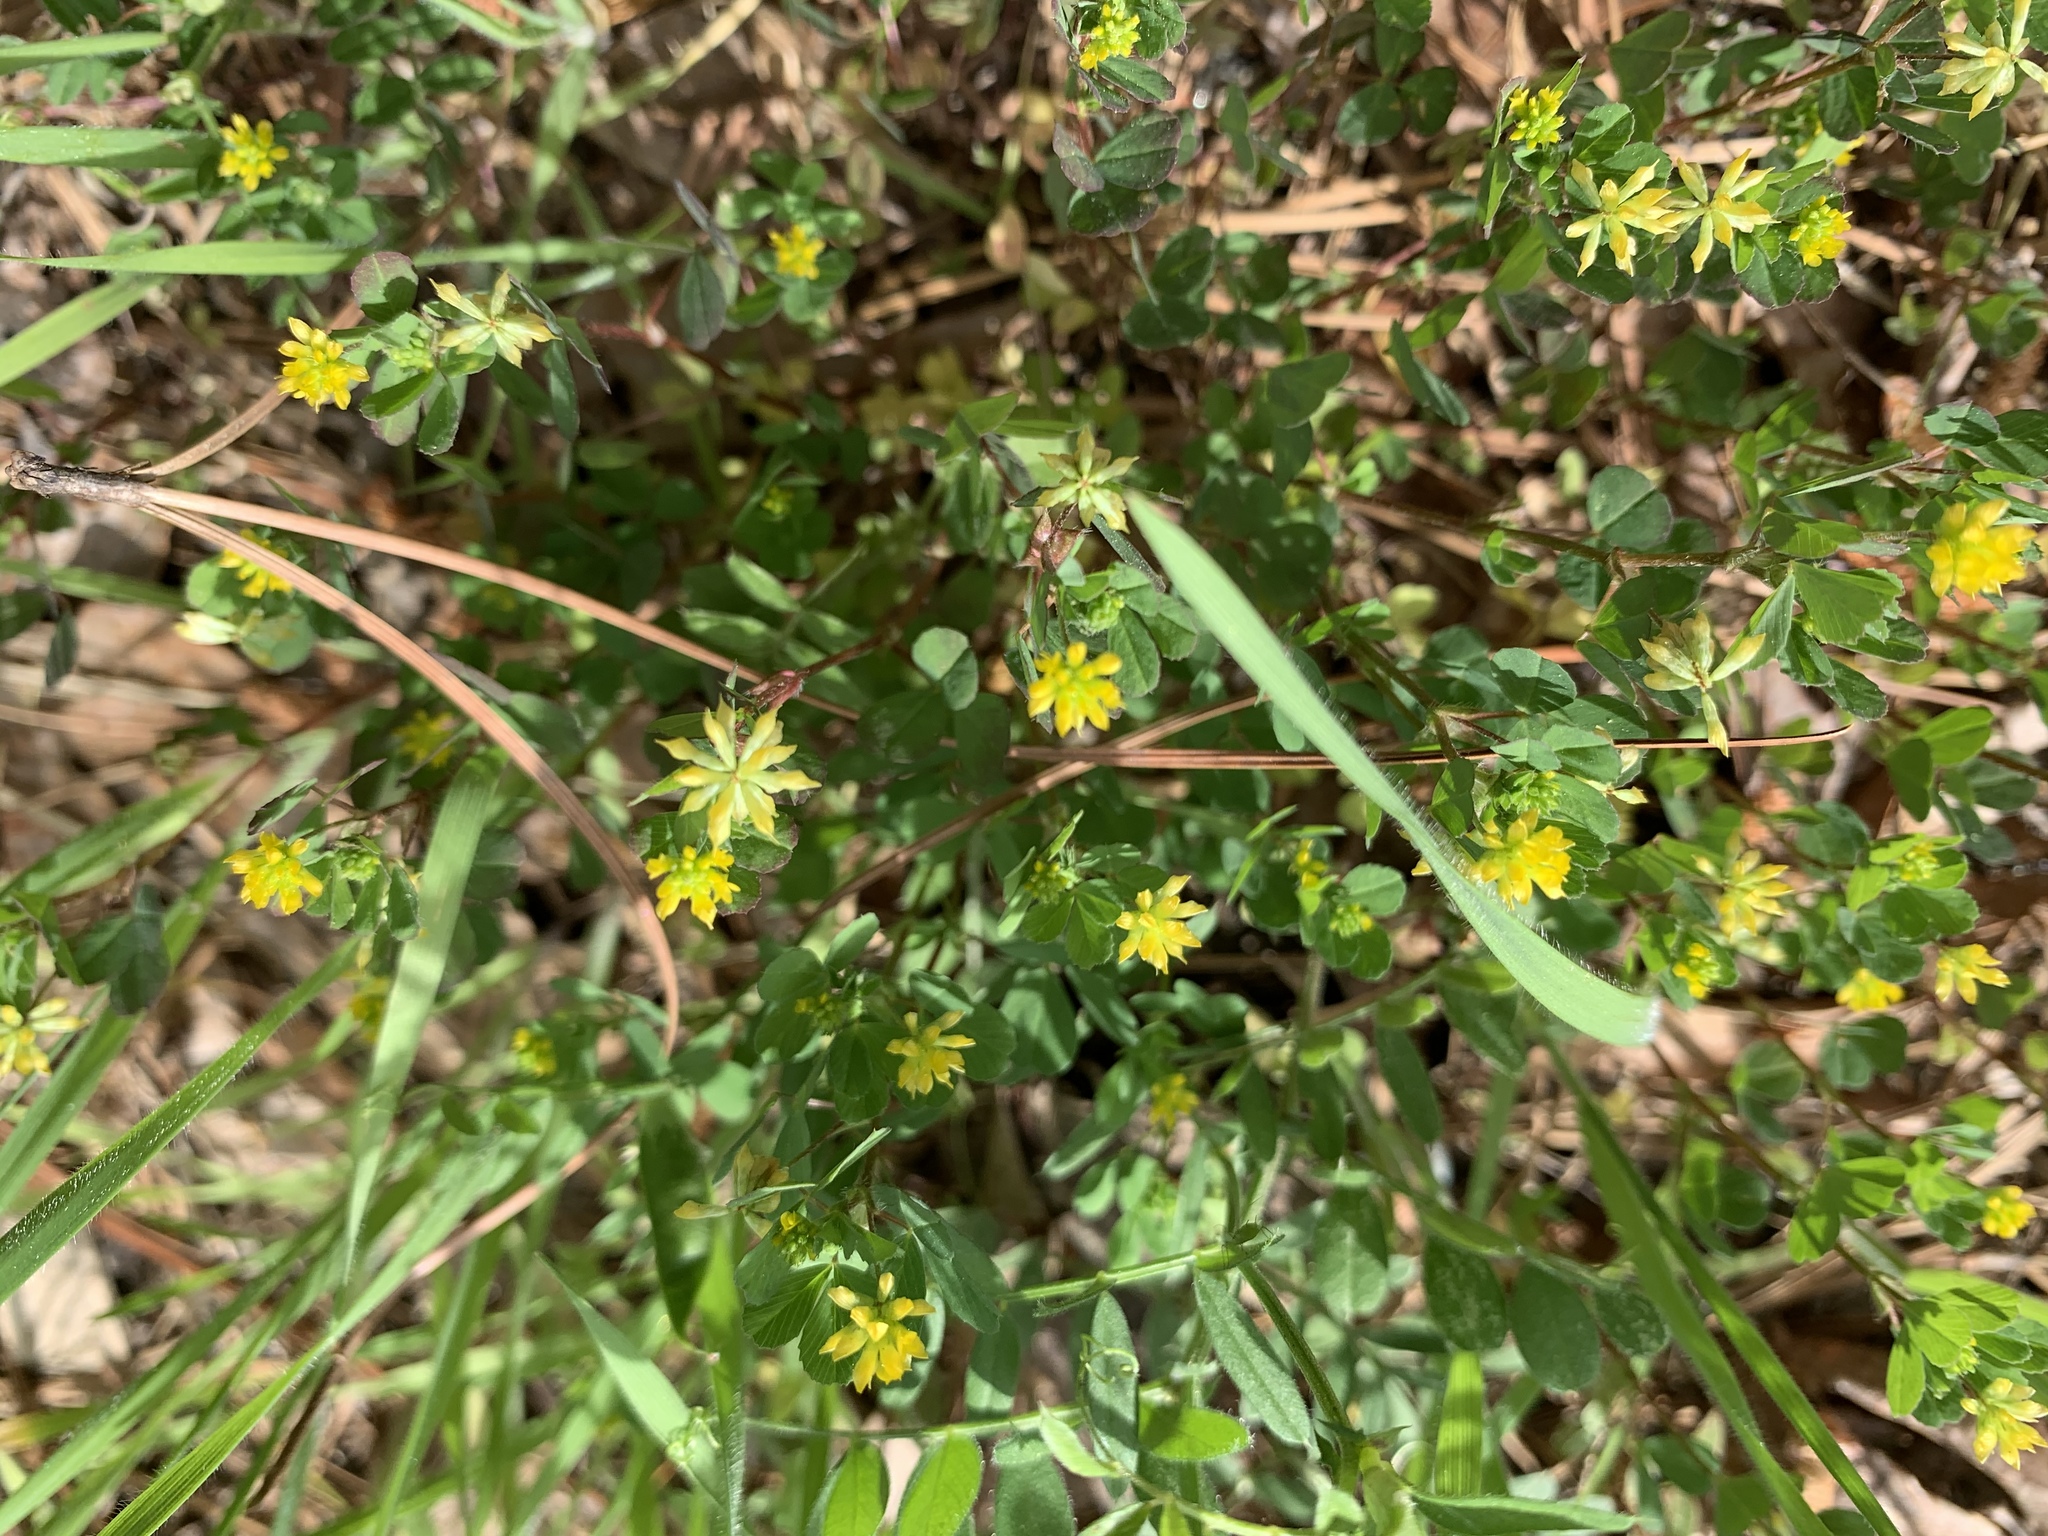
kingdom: Plantae
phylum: Tracheophyta
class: Magnoliopsida
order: Fabales
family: Fabaceae
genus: Trifolium
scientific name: Trifolium dubium
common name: Suckling clover
